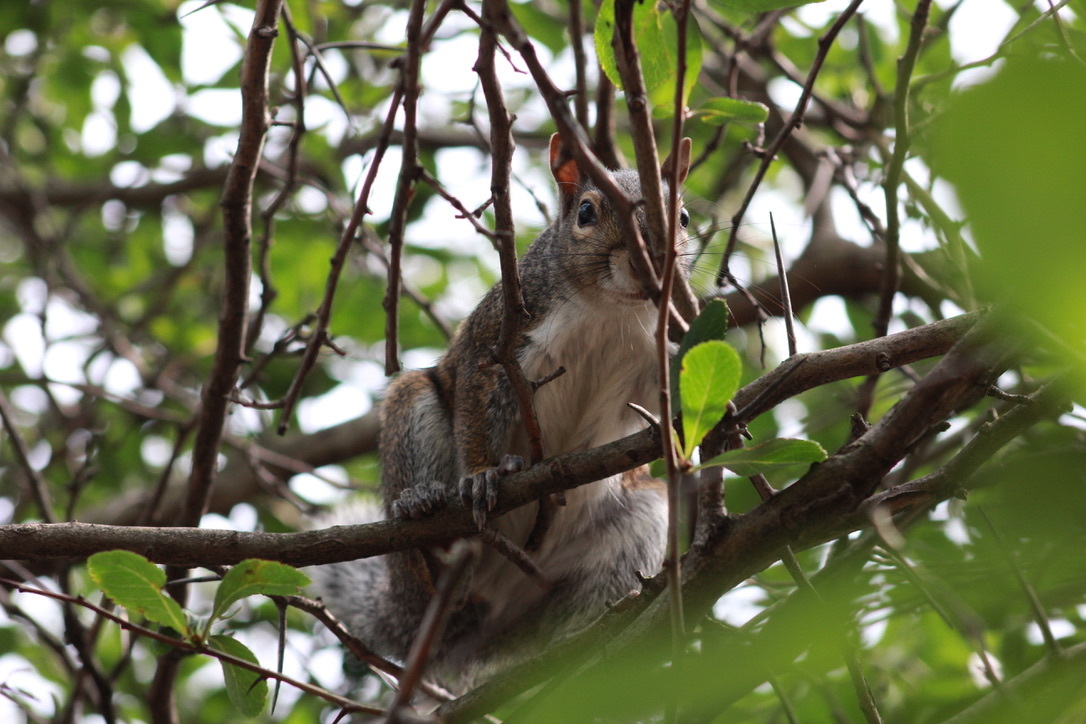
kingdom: Animalia
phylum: Chordata
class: Mammalia
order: Rodentia
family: Sciuridae
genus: Sciurus
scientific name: Sciurus carolinensis
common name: Eastern gray squirrel
